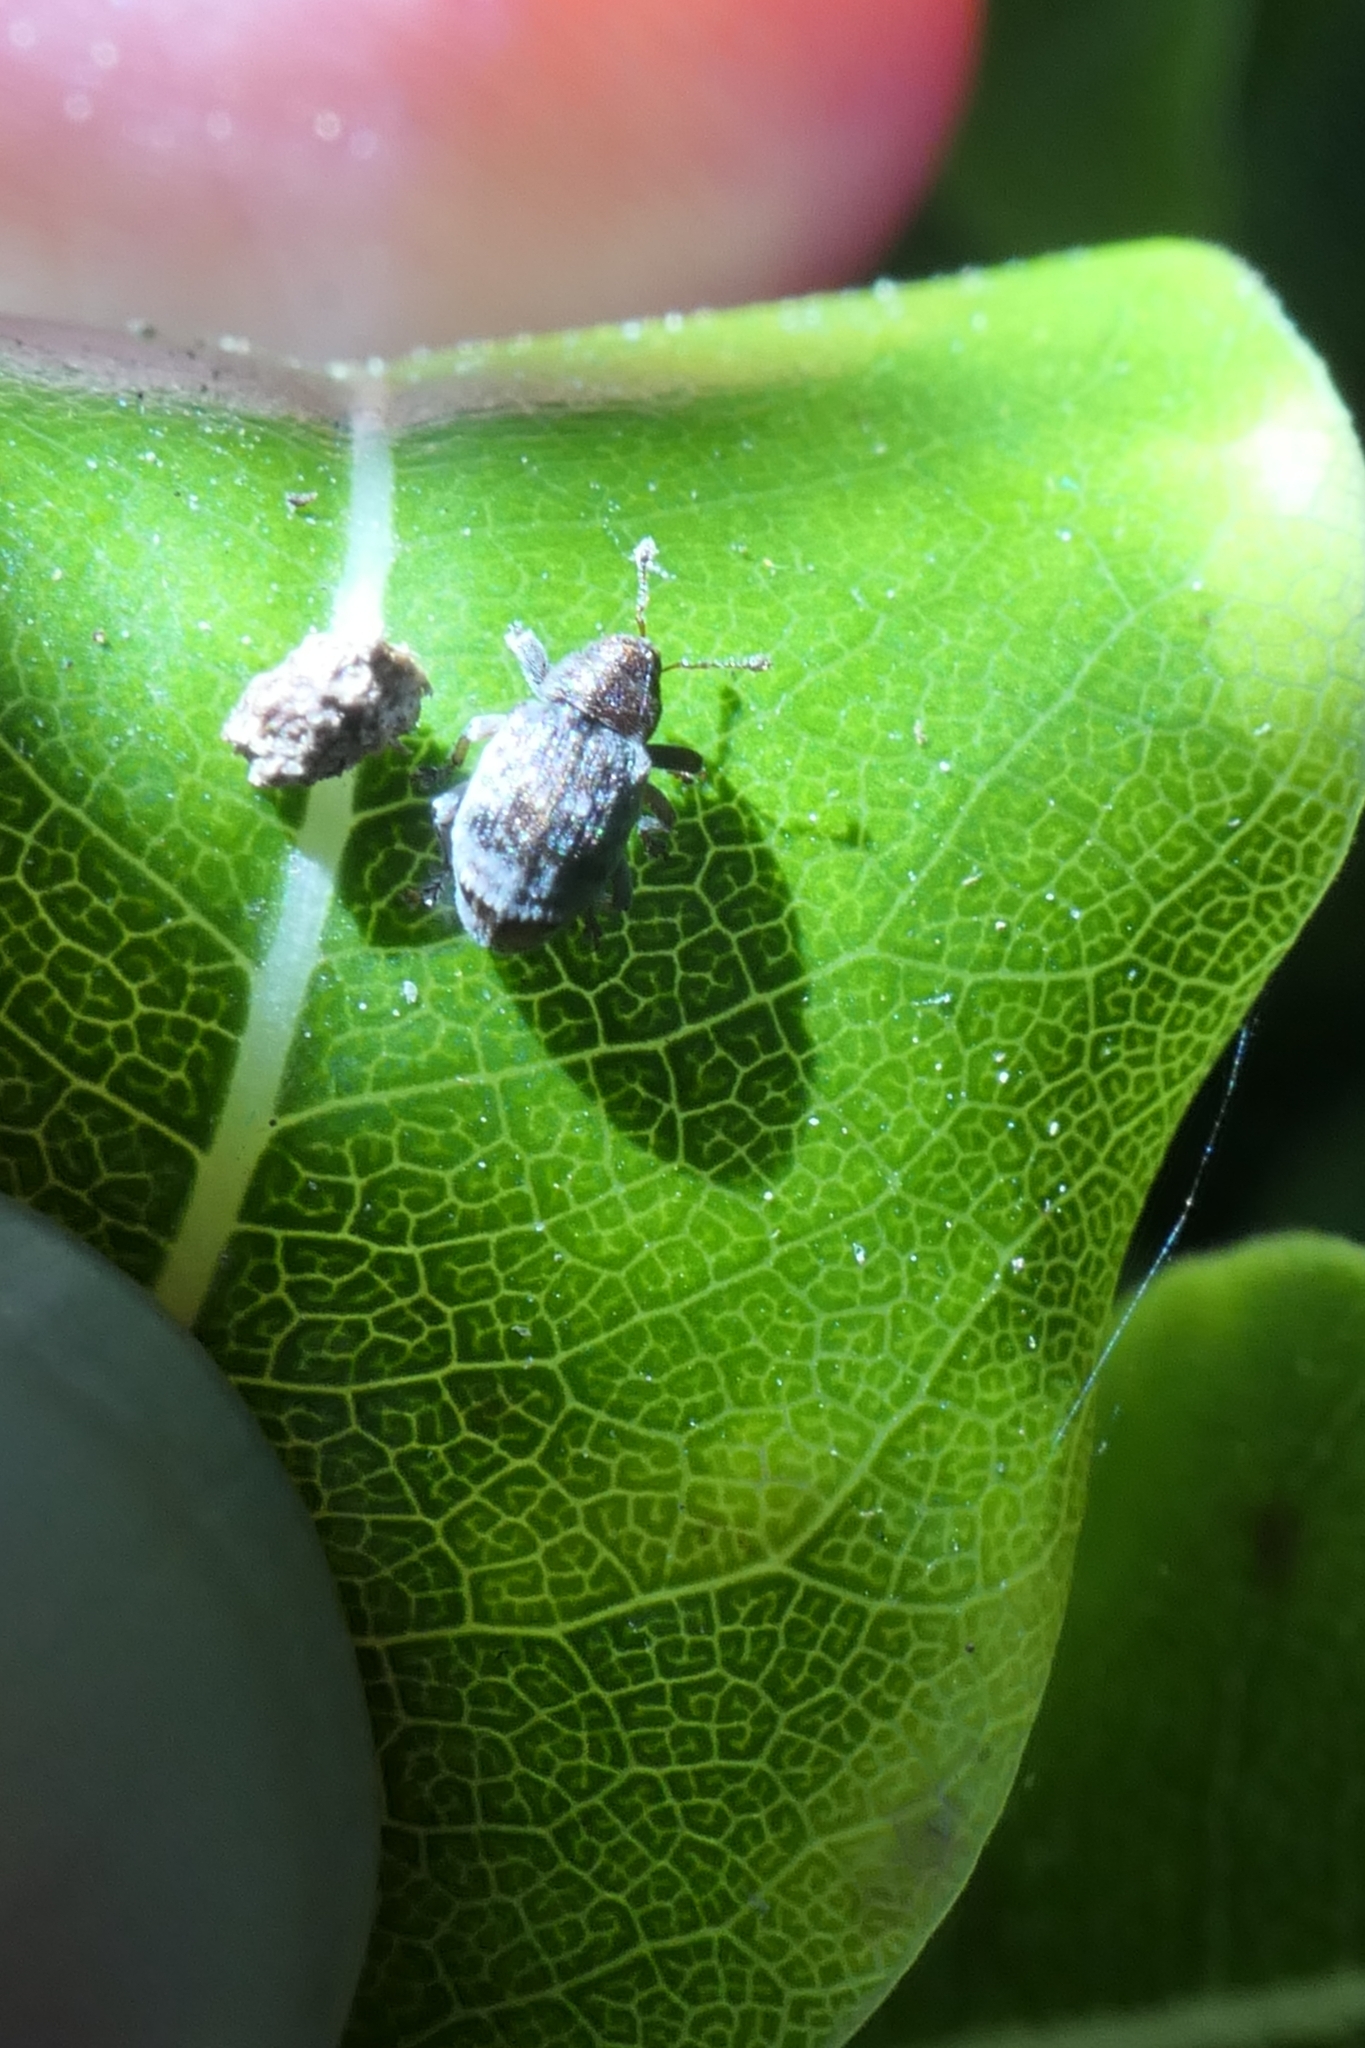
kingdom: Animalia
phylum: Arthropoda
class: Insecta
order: Coleoptera
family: Curculionidae
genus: Aneuma
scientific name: Aneuma fasciatum
